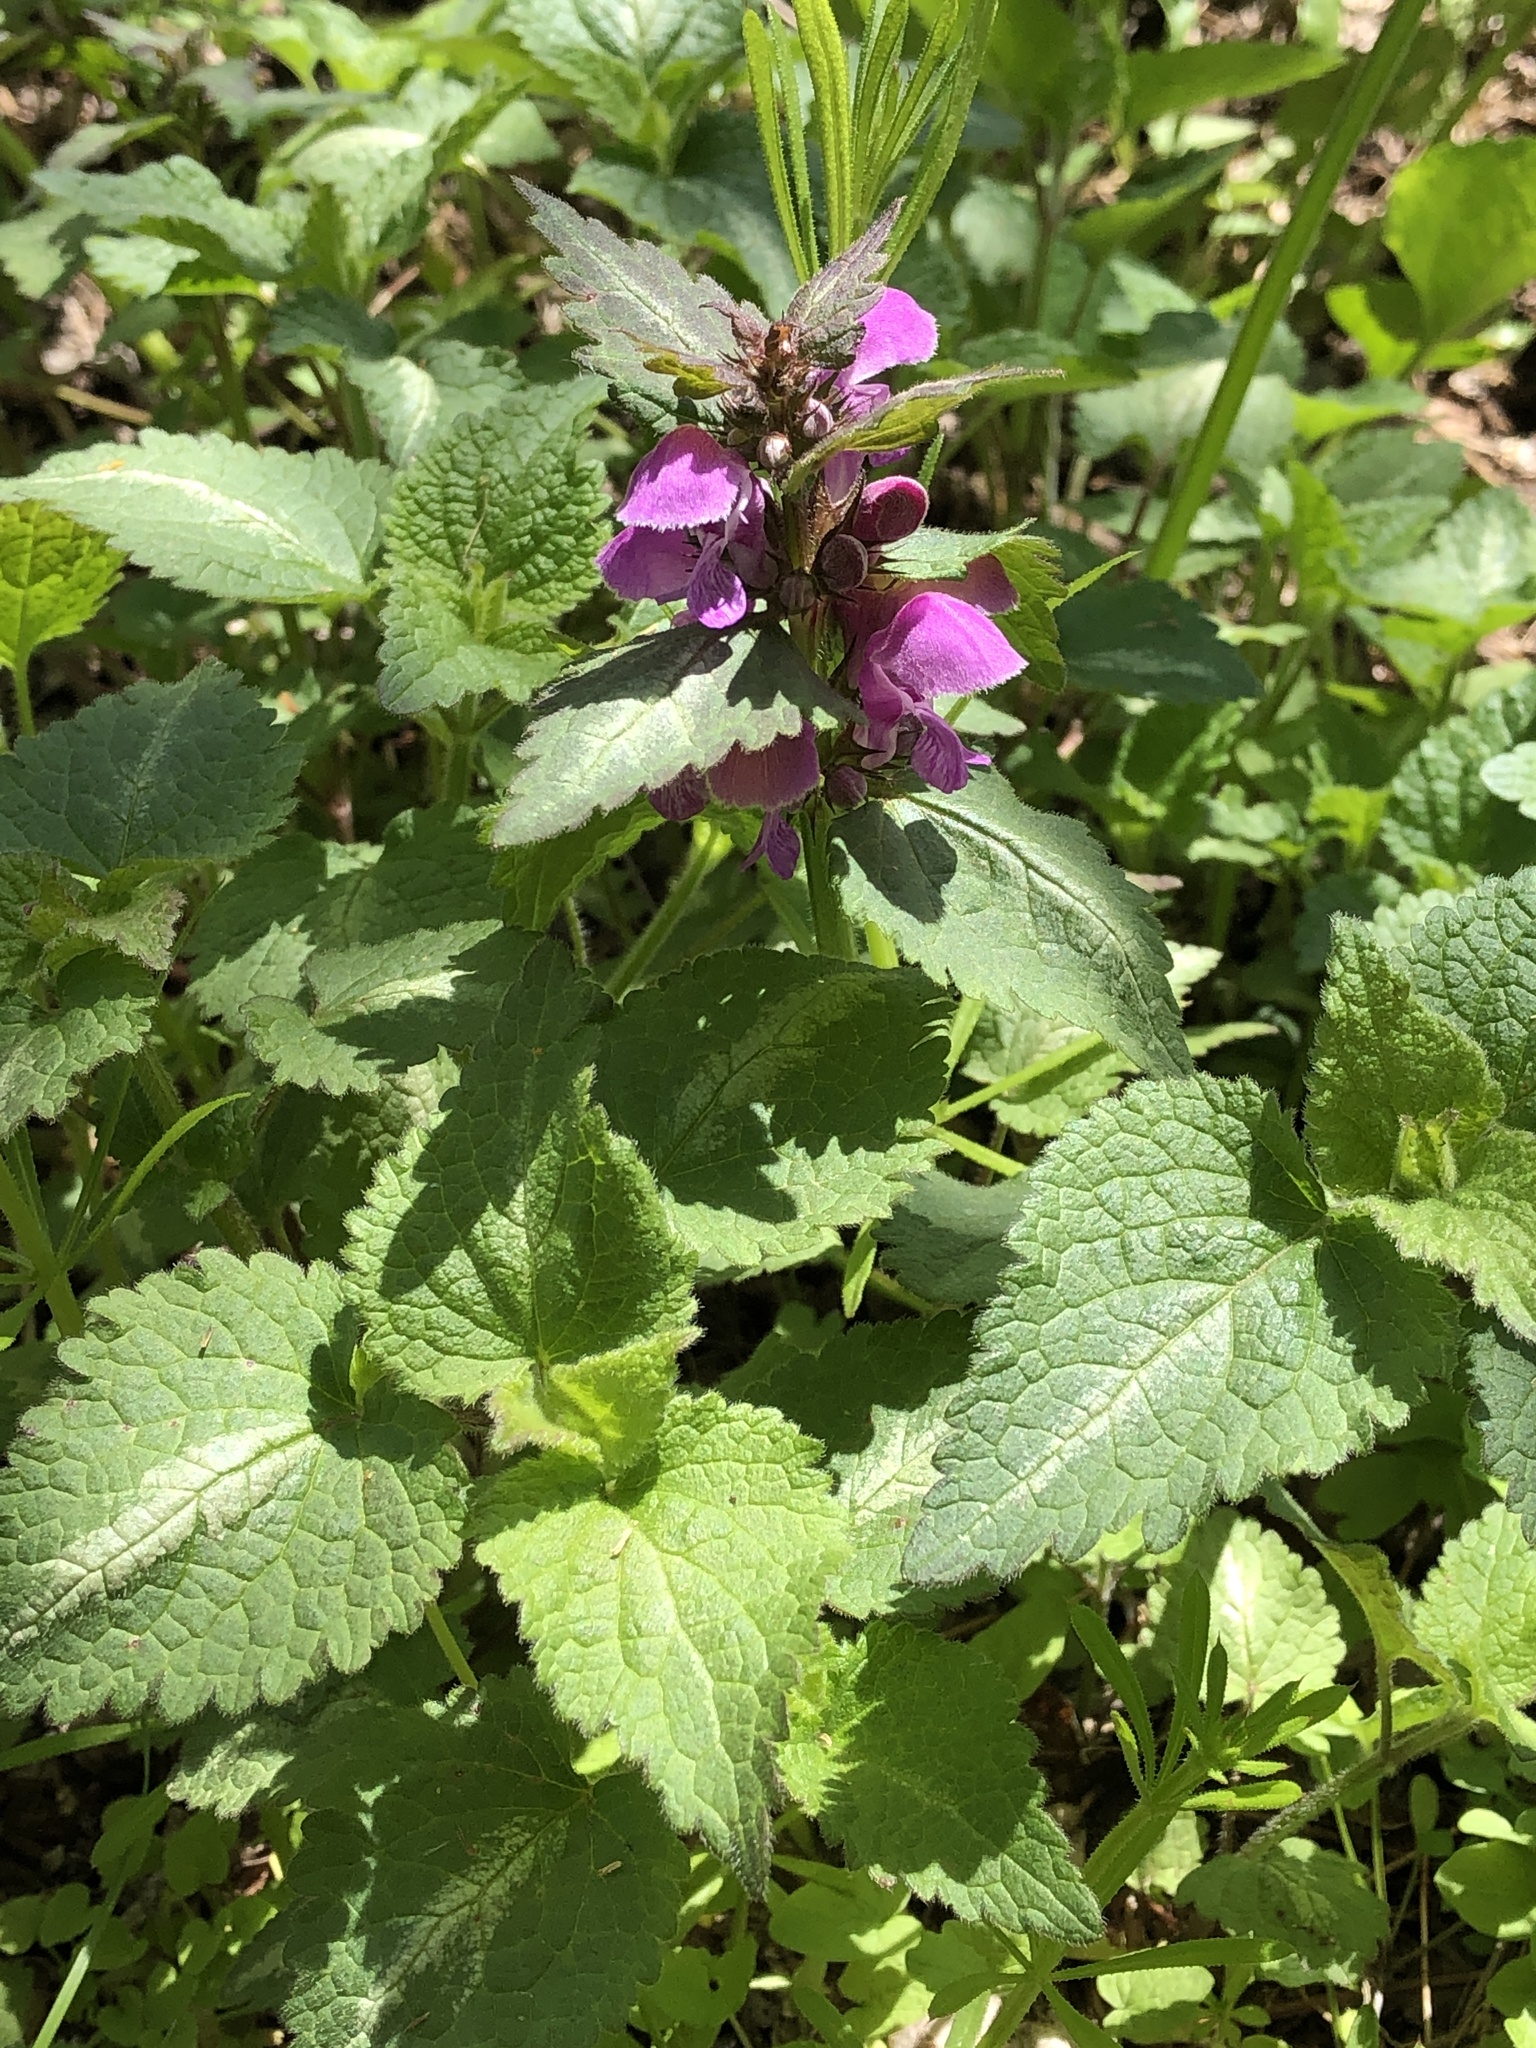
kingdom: Plantae
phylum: Tracheophyta
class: Magnoliopsida
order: Lamiales
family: Lamiaceae
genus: Lamium
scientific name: Lamium maculatum
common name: Spotted dead-nettle
